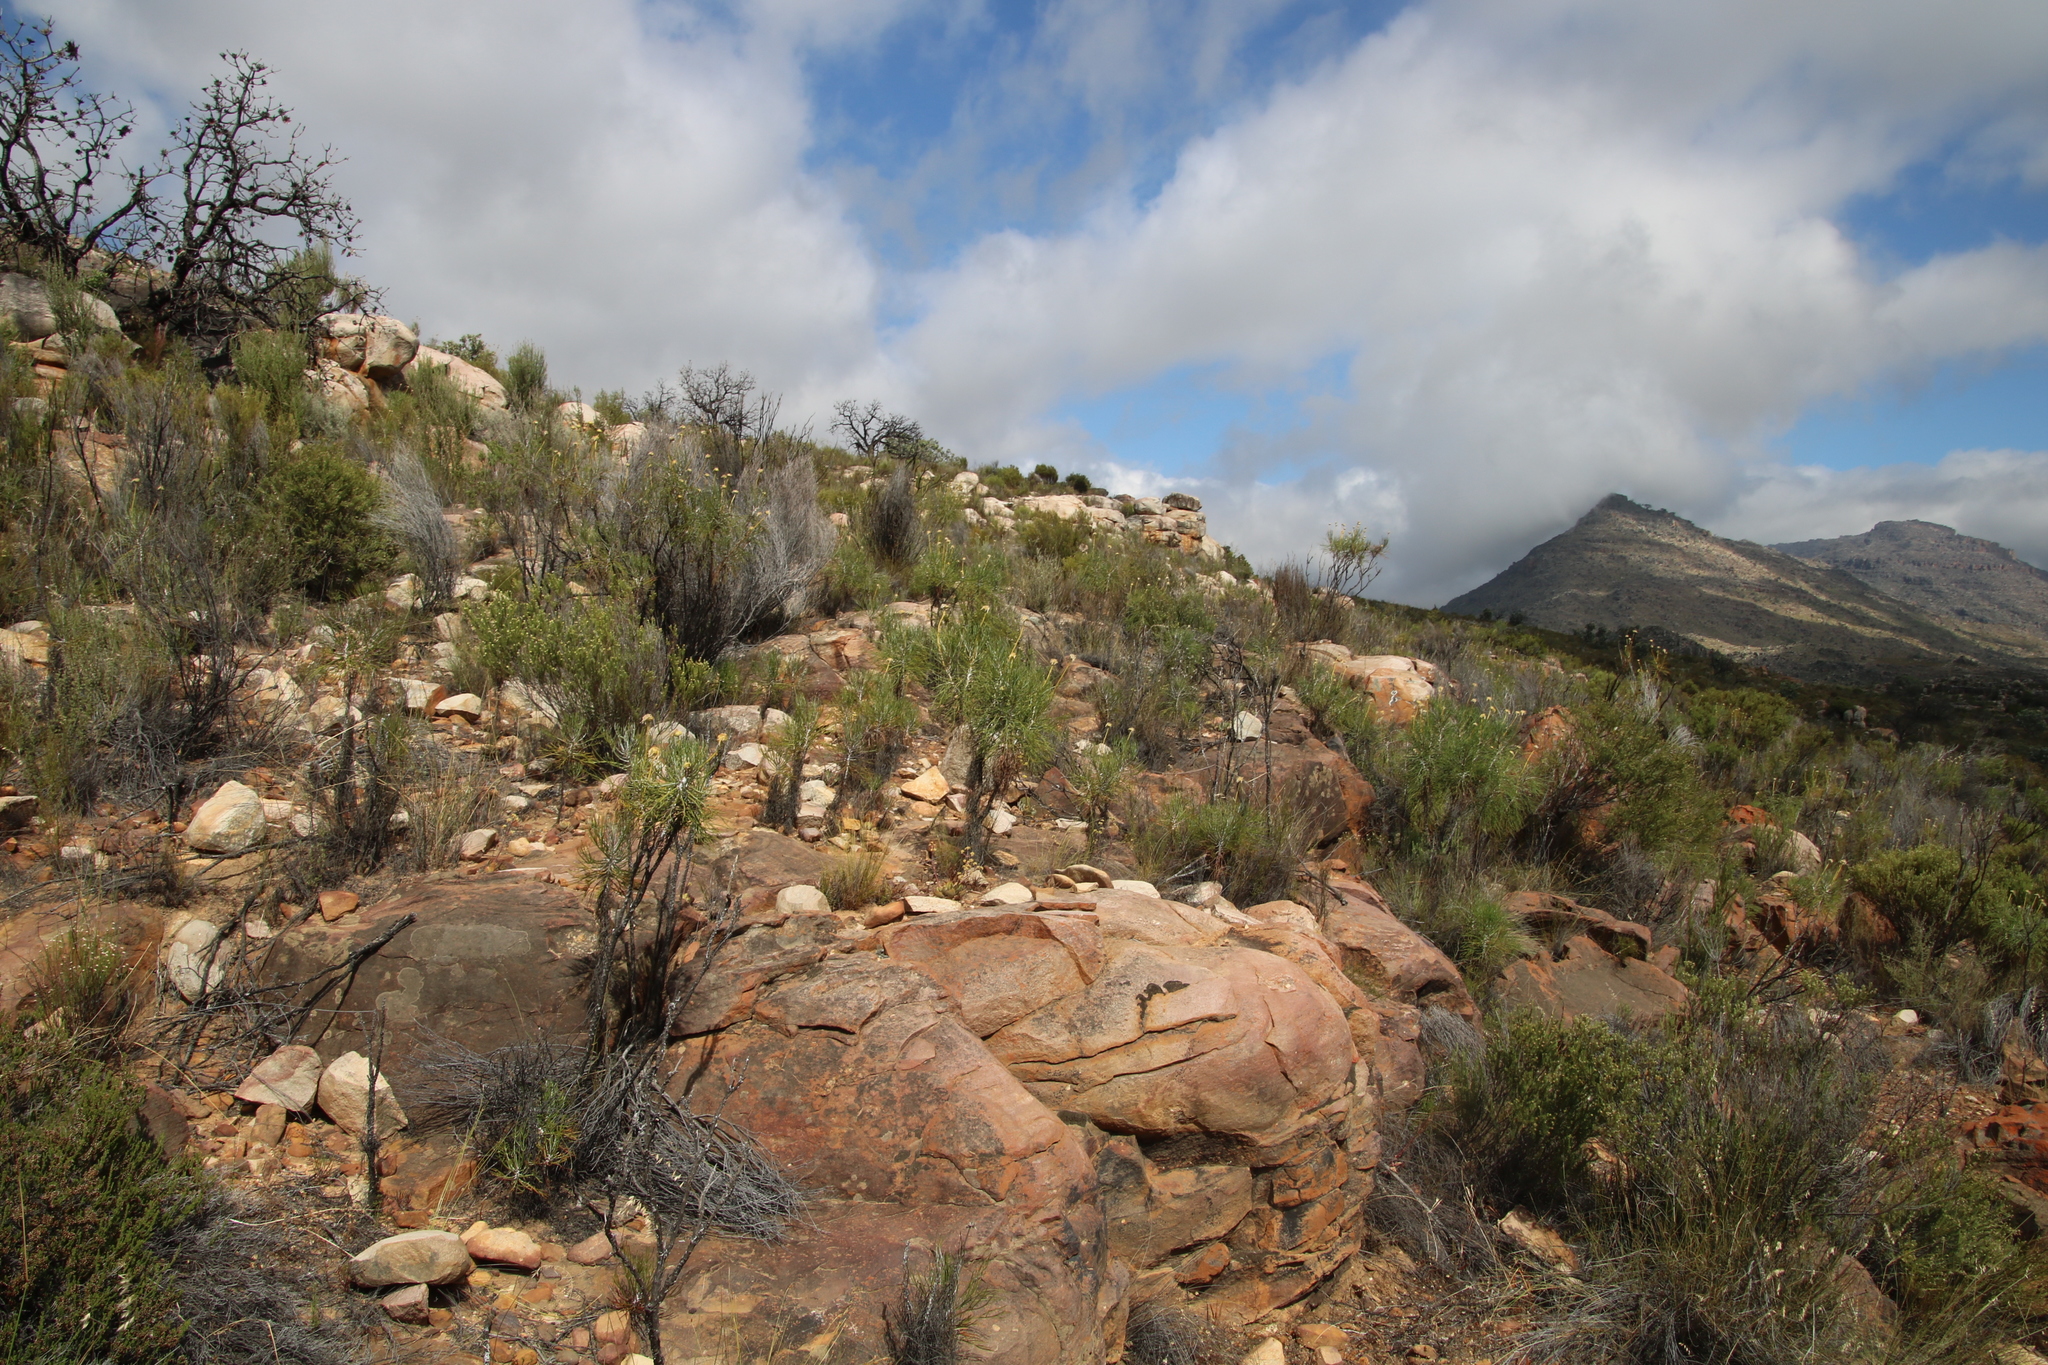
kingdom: Plantae
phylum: Tracheophyta
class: Magnoliopsida
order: Asterales
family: Asteraceae
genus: Euryops
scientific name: Euryops speciosissimus
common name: Clanwilliam daisy
